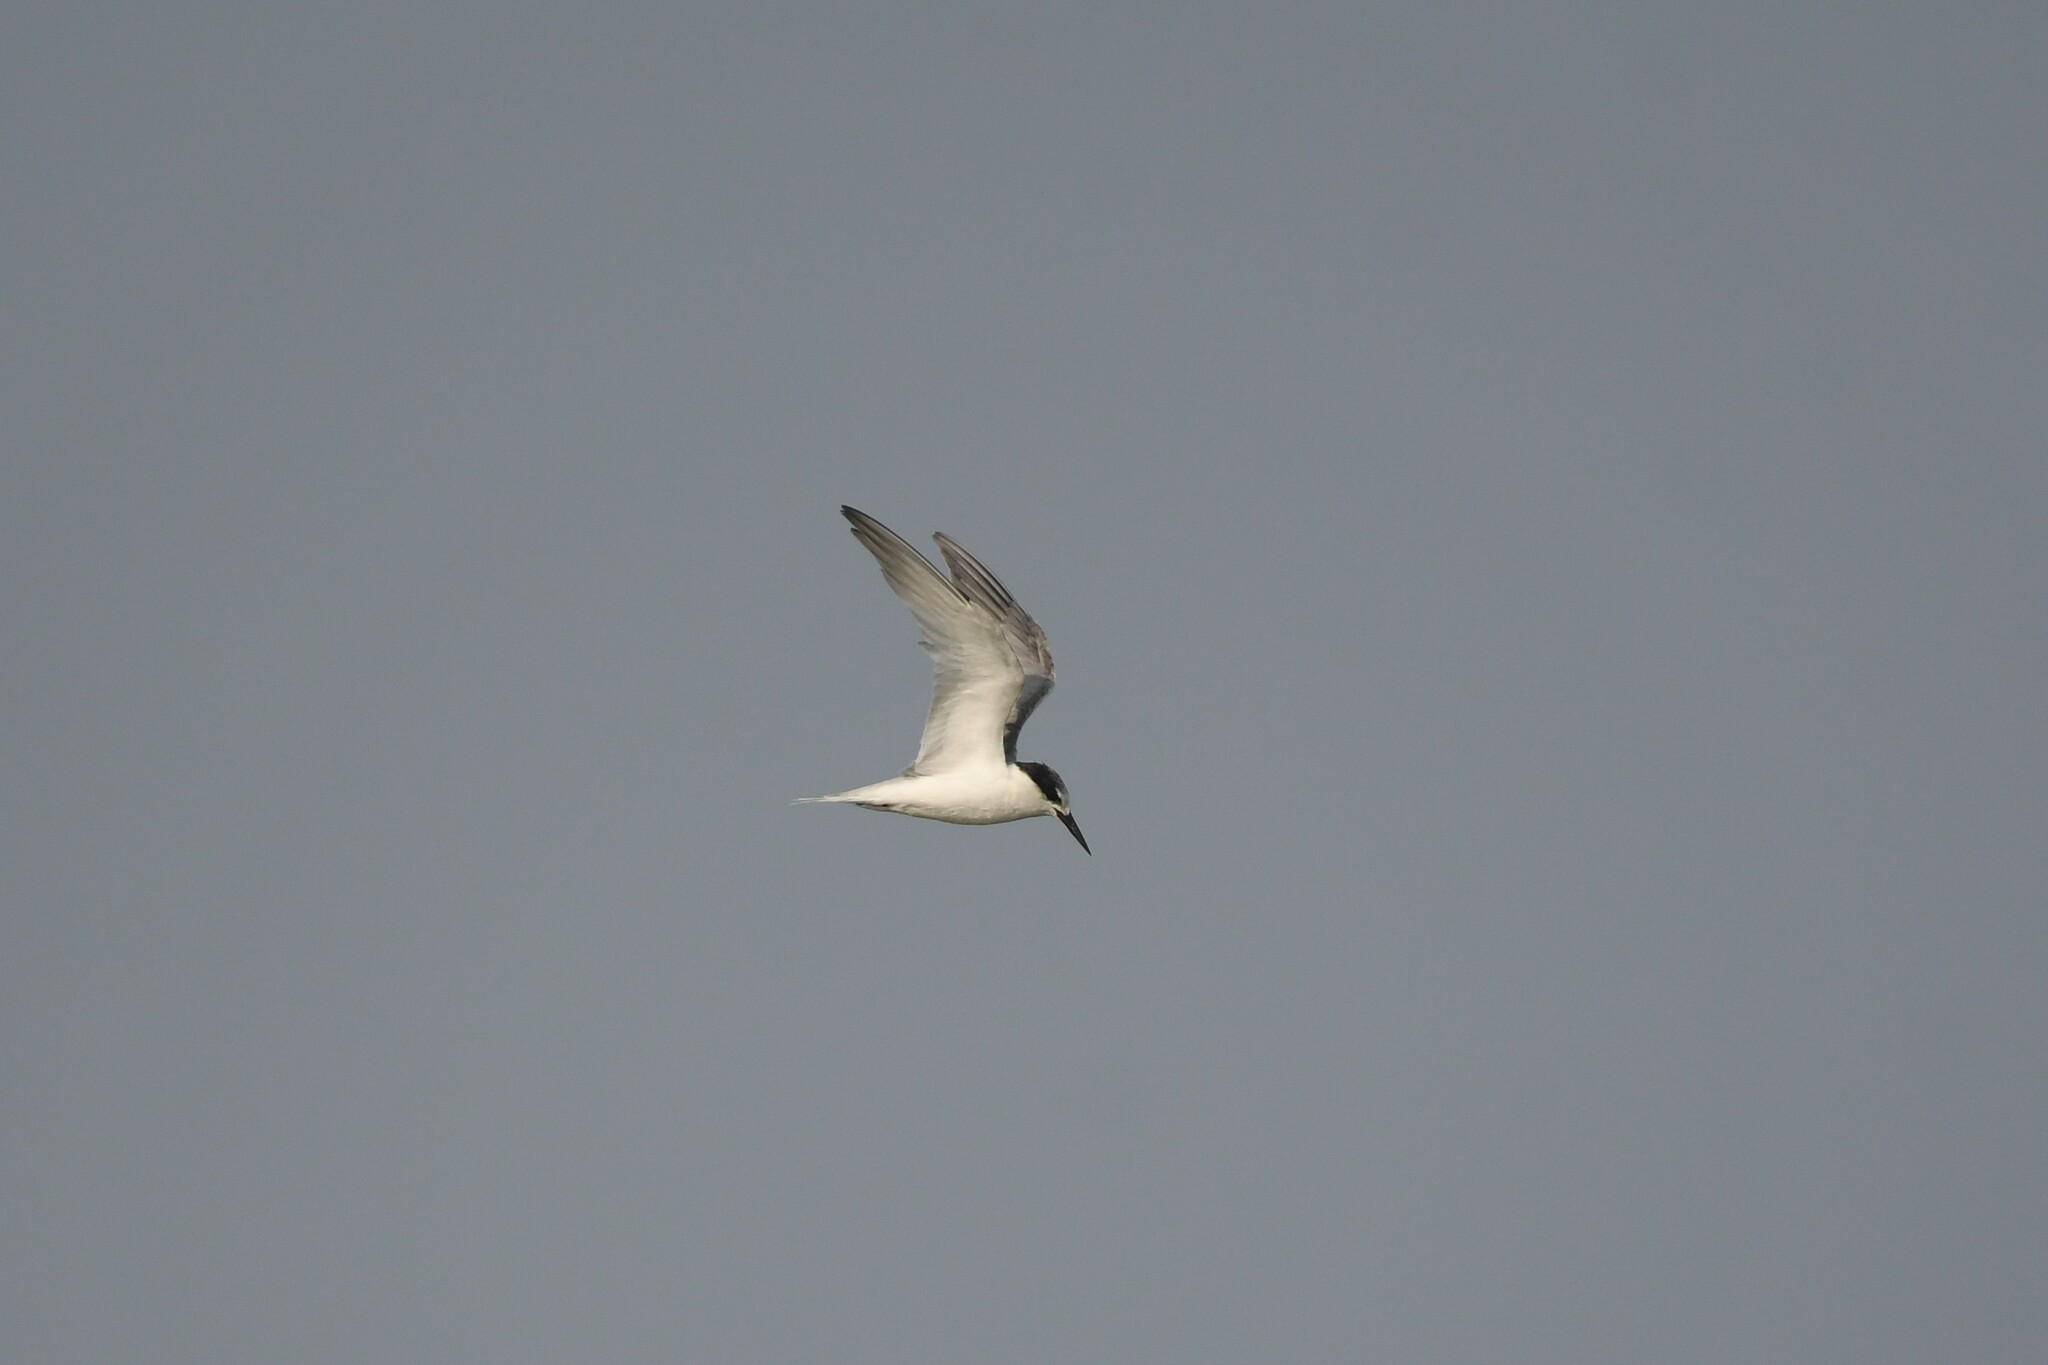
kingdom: Animalia
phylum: Chordata
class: Aves
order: Charadriiformes
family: Laridae
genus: Sternula
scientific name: Sternula albifrons
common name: Little tern
